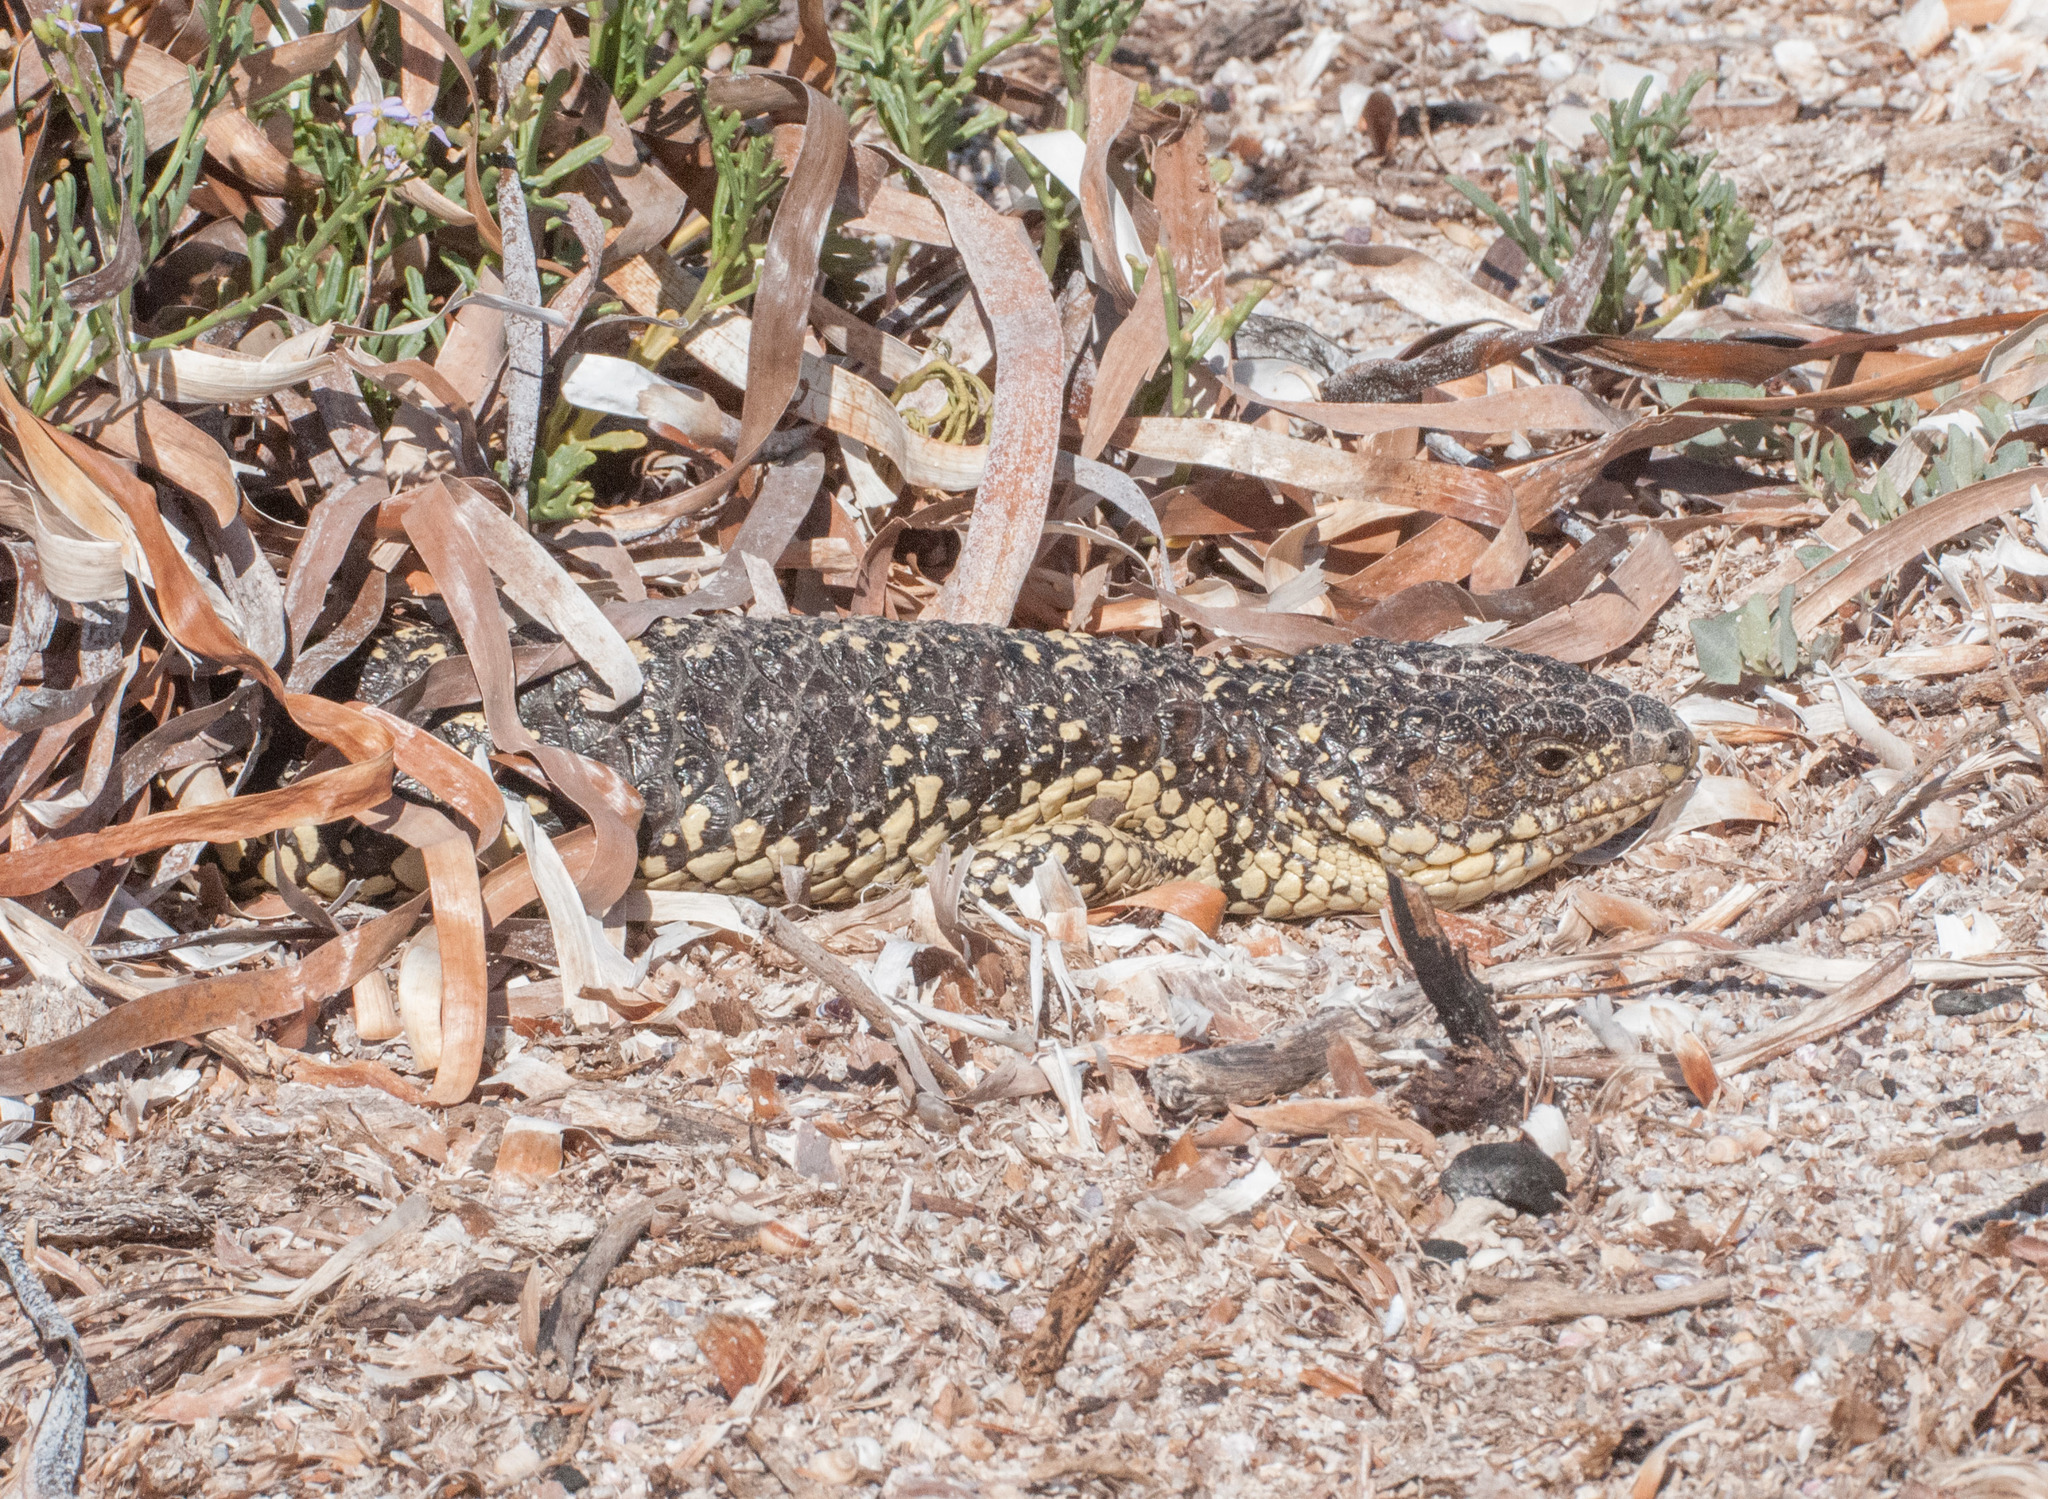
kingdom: Animalia
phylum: Chordata
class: Squamata
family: Scincidae
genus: Tiliqua
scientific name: Tiliqua rugosa
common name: Pinecone lizard
